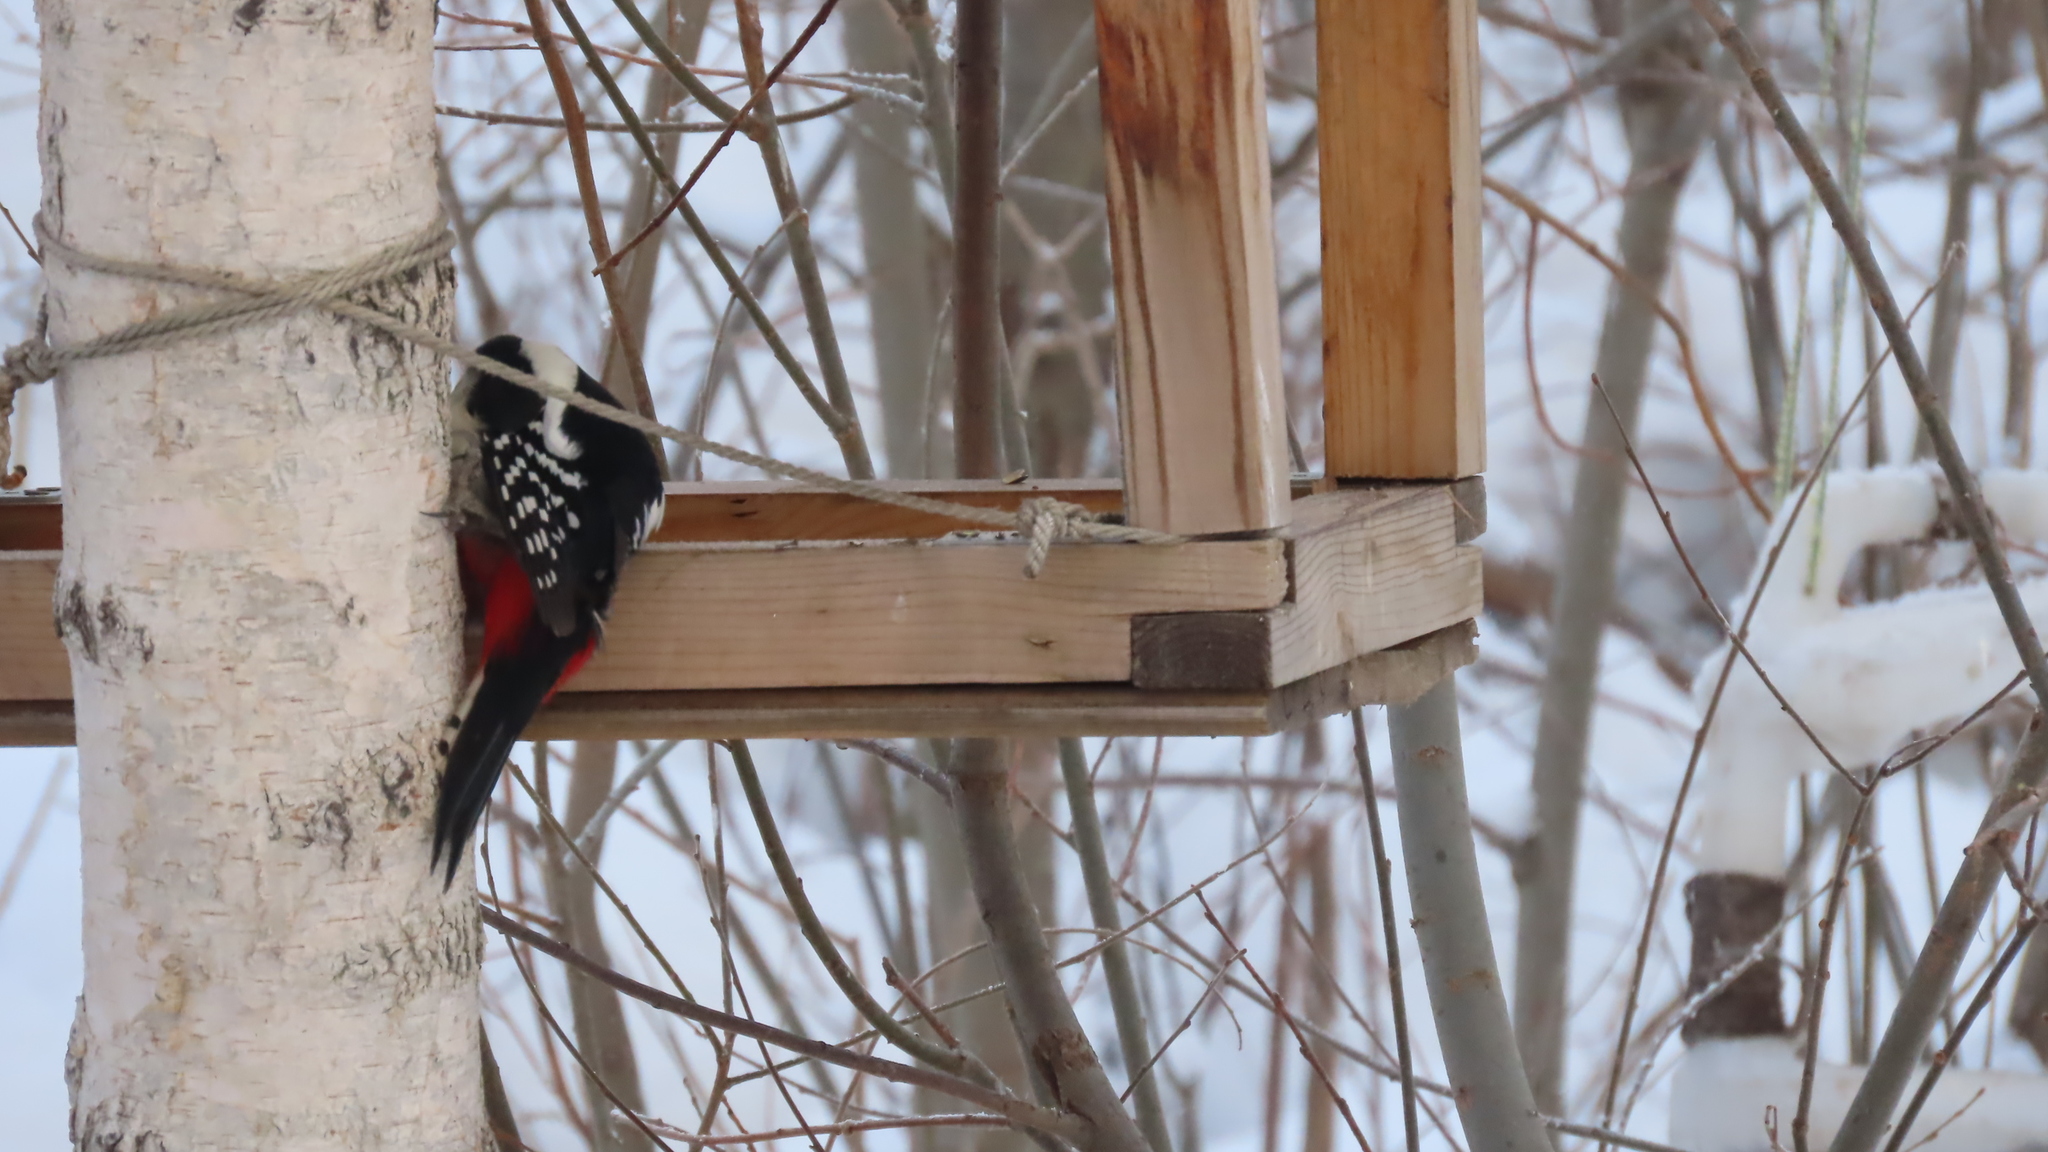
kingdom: Animalia
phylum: Chordata
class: Aves
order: Piciformes
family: Picidae
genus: Dendrocopos
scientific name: Dendrocopos major
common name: Great spotted woodpecker
